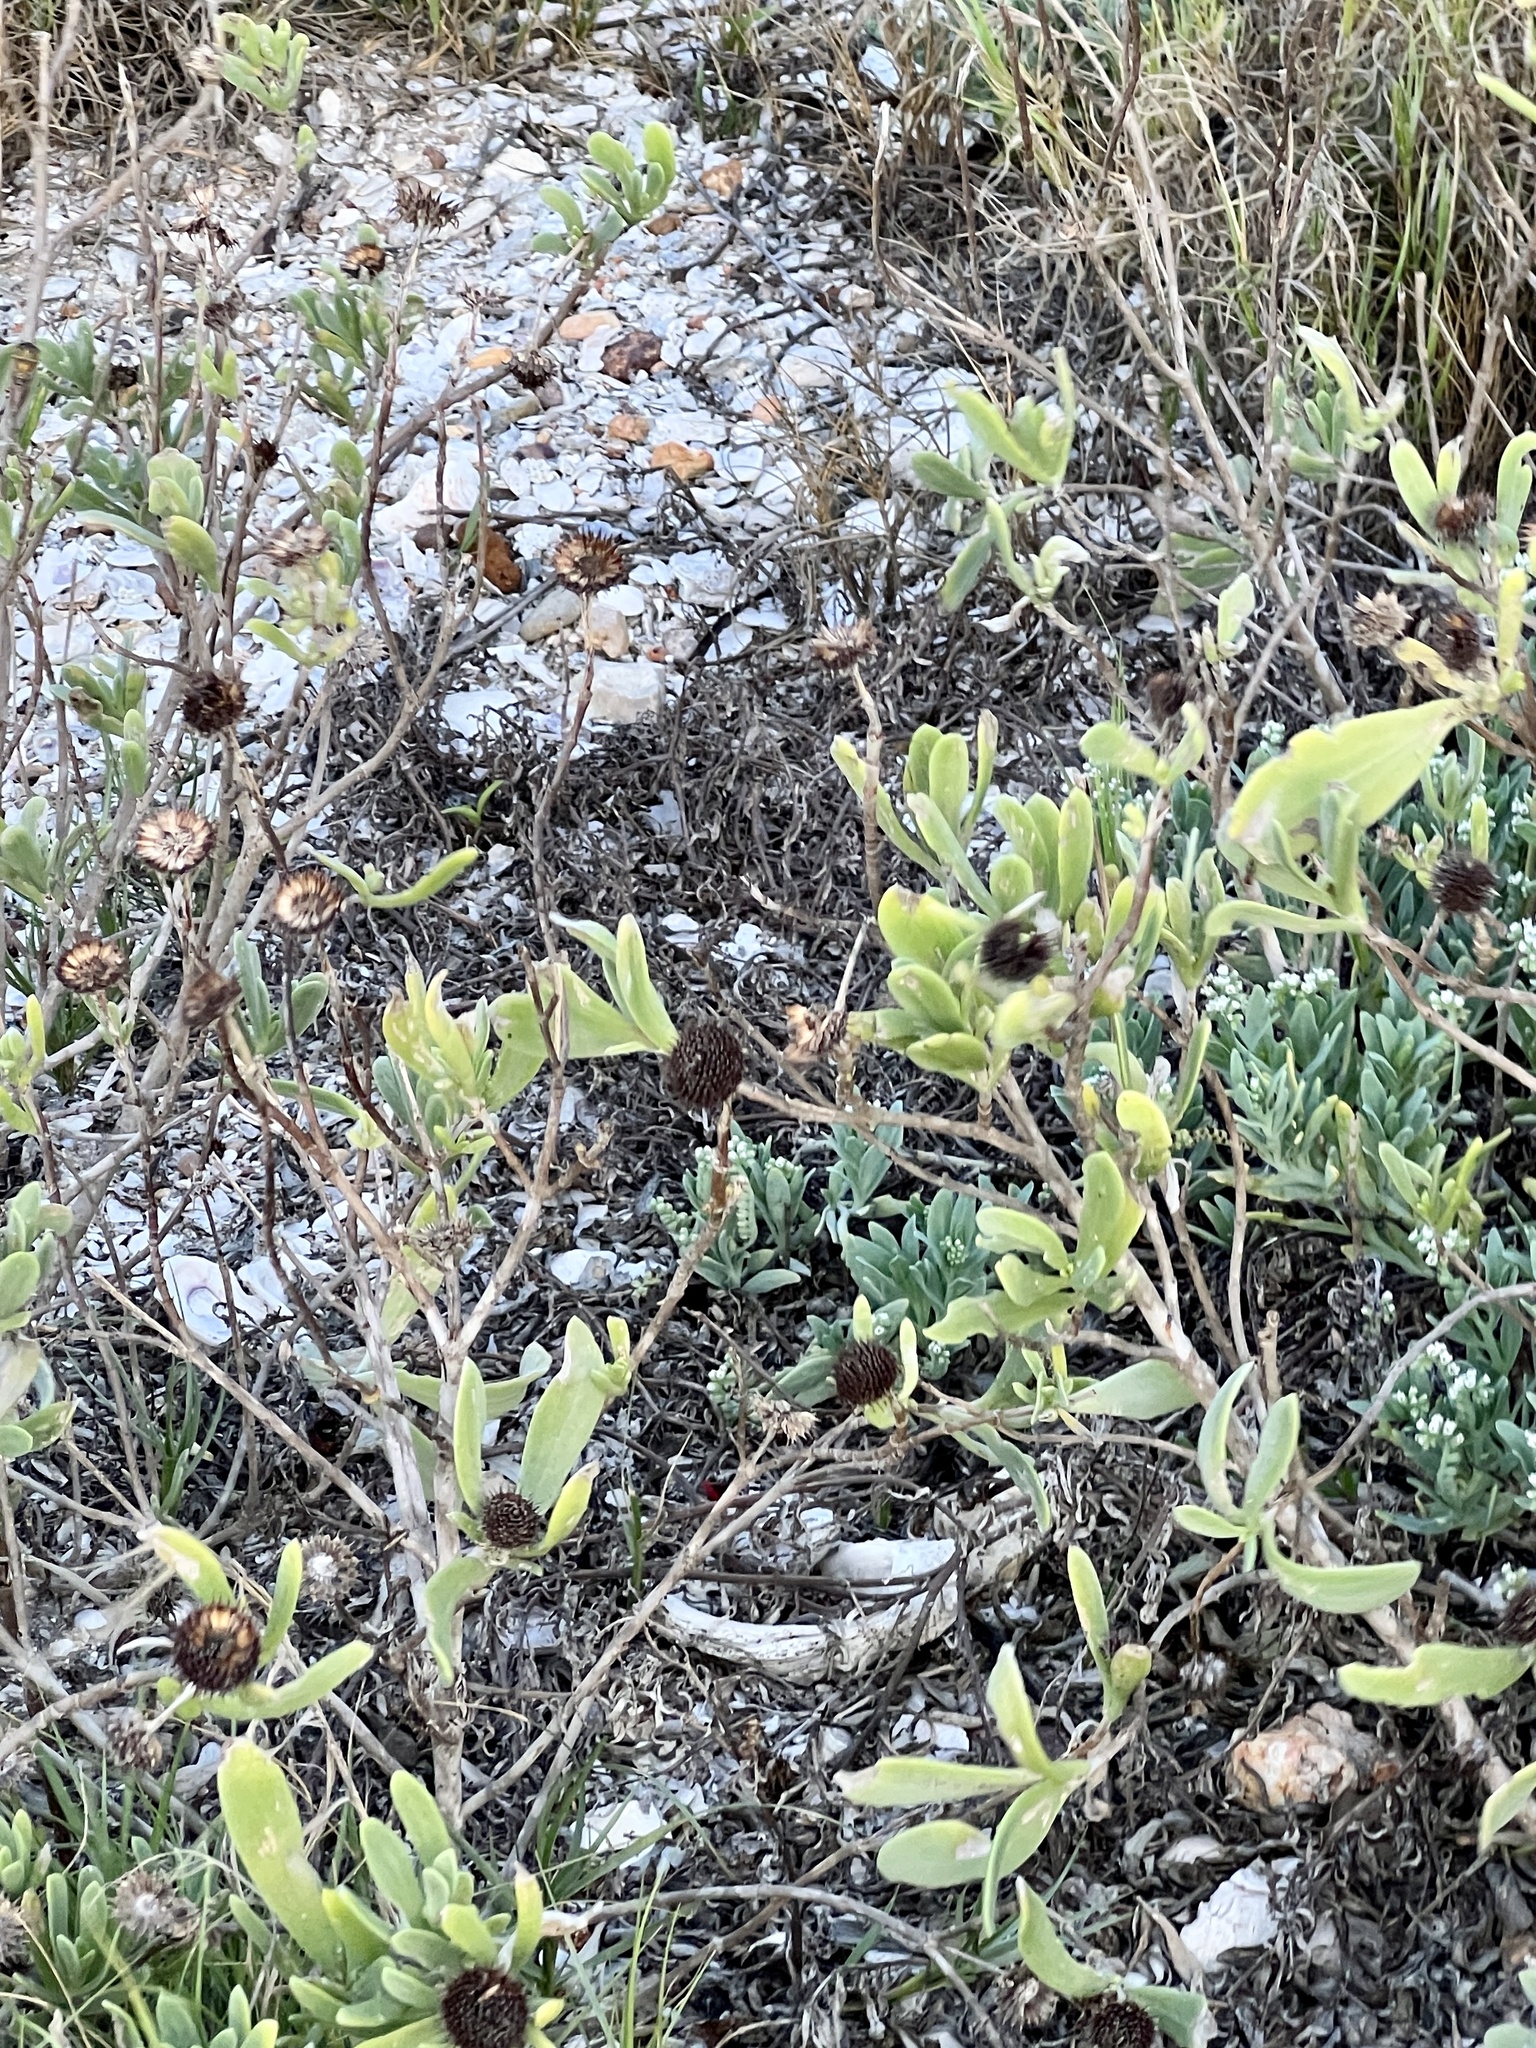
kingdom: Plantae
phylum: Tracheophyta
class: Magnoliopsida
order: Asterales
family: Asteraceae
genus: Borrichia
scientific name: Borrichia frutescens
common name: Sea oxeye
